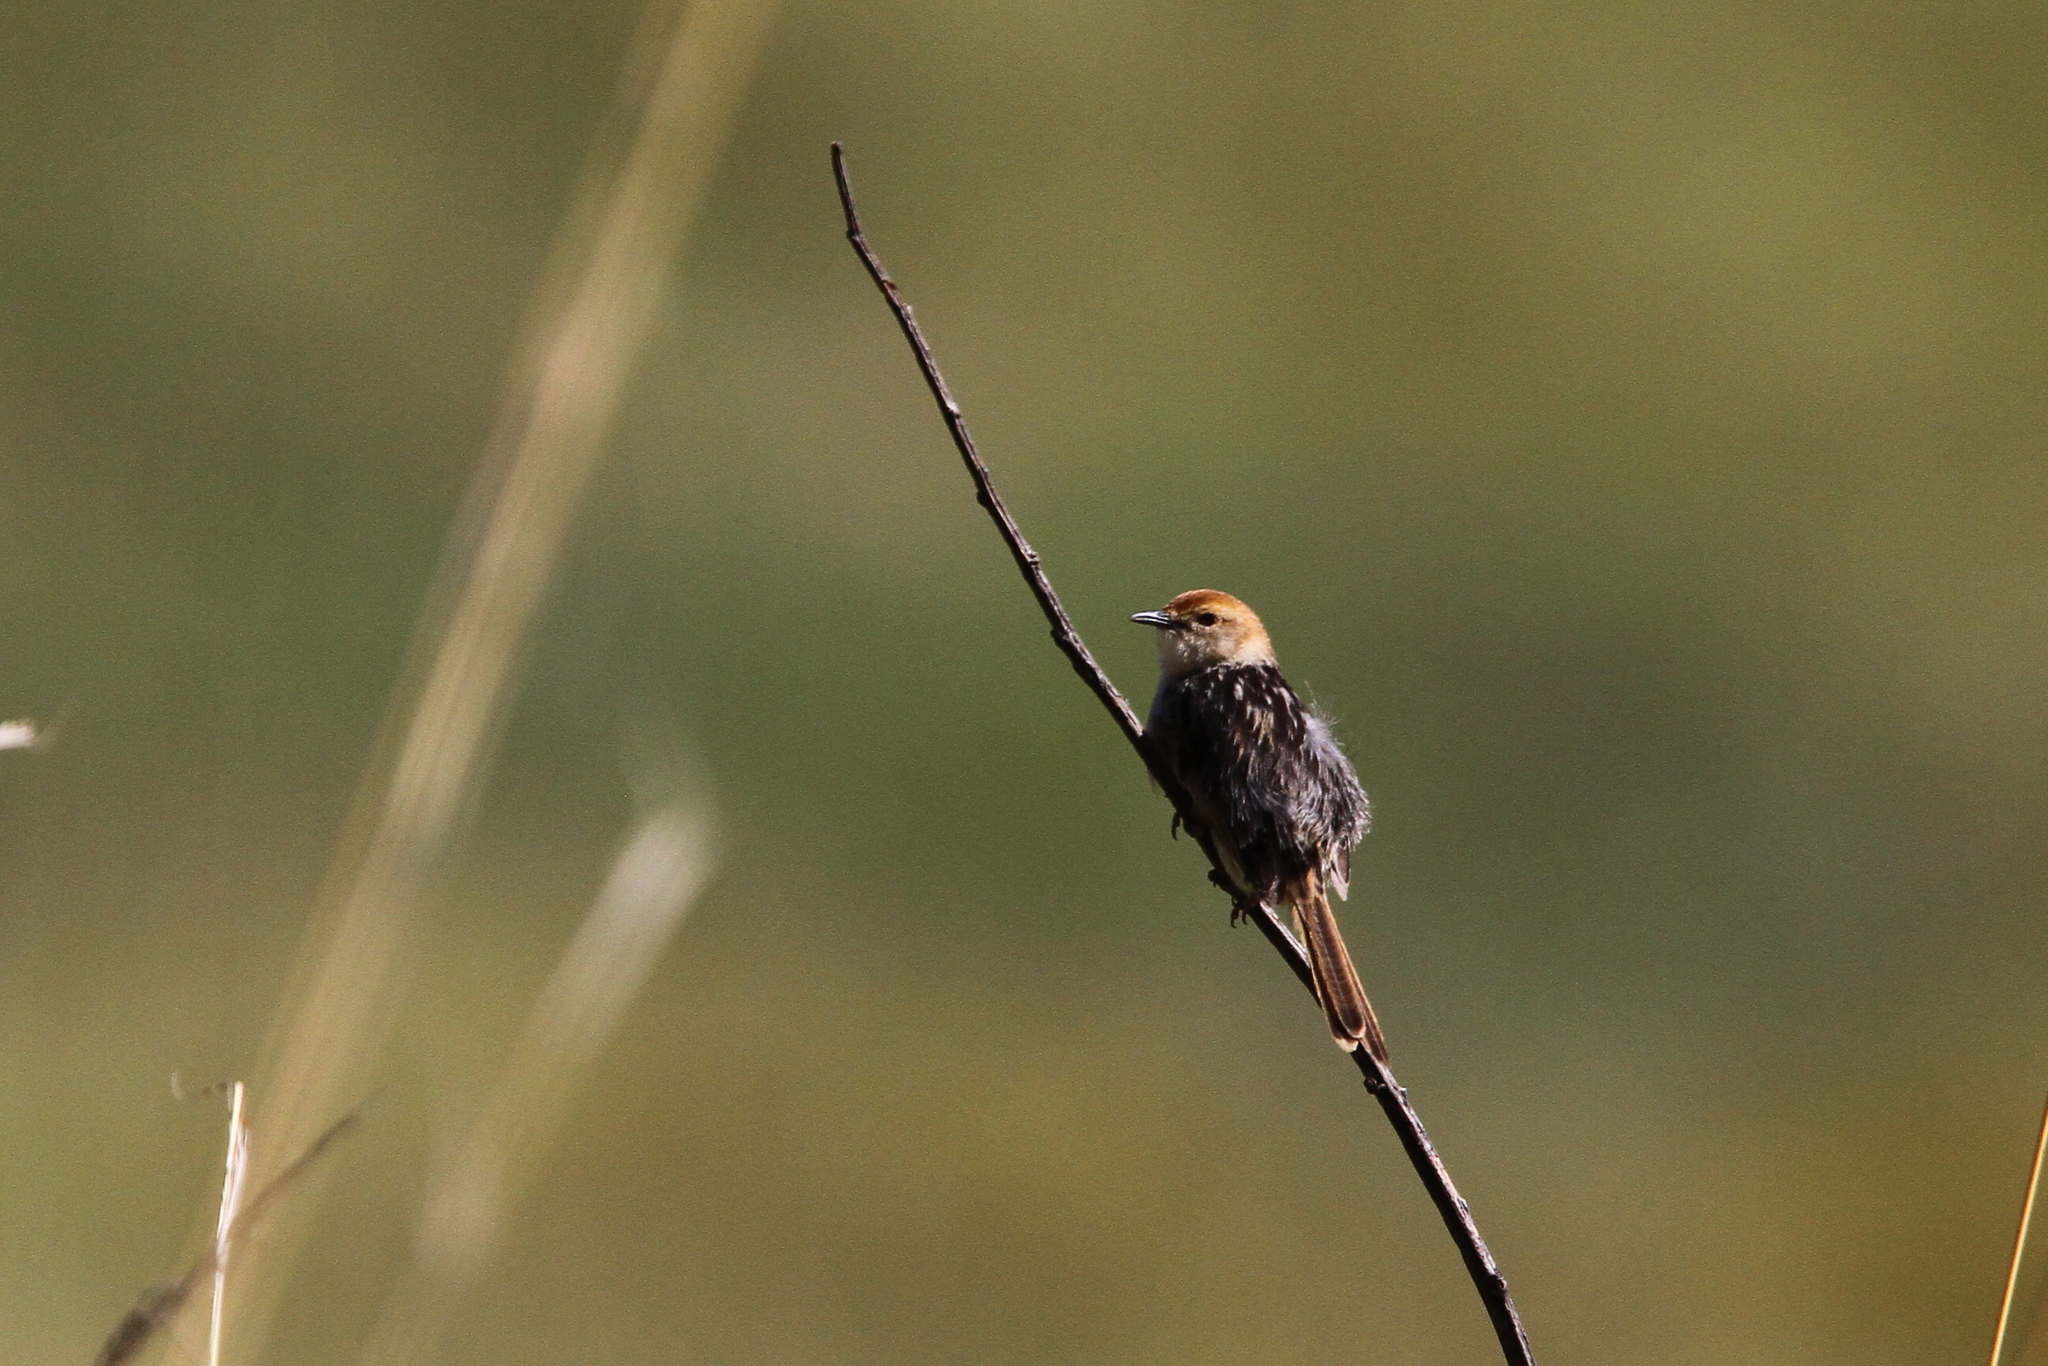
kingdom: Animalia
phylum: Chordata
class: Aves
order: Passeriformes
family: Cisticolidae
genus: Cisticola
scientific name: Cisticola tinniens
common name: Levaillant's cisticola
